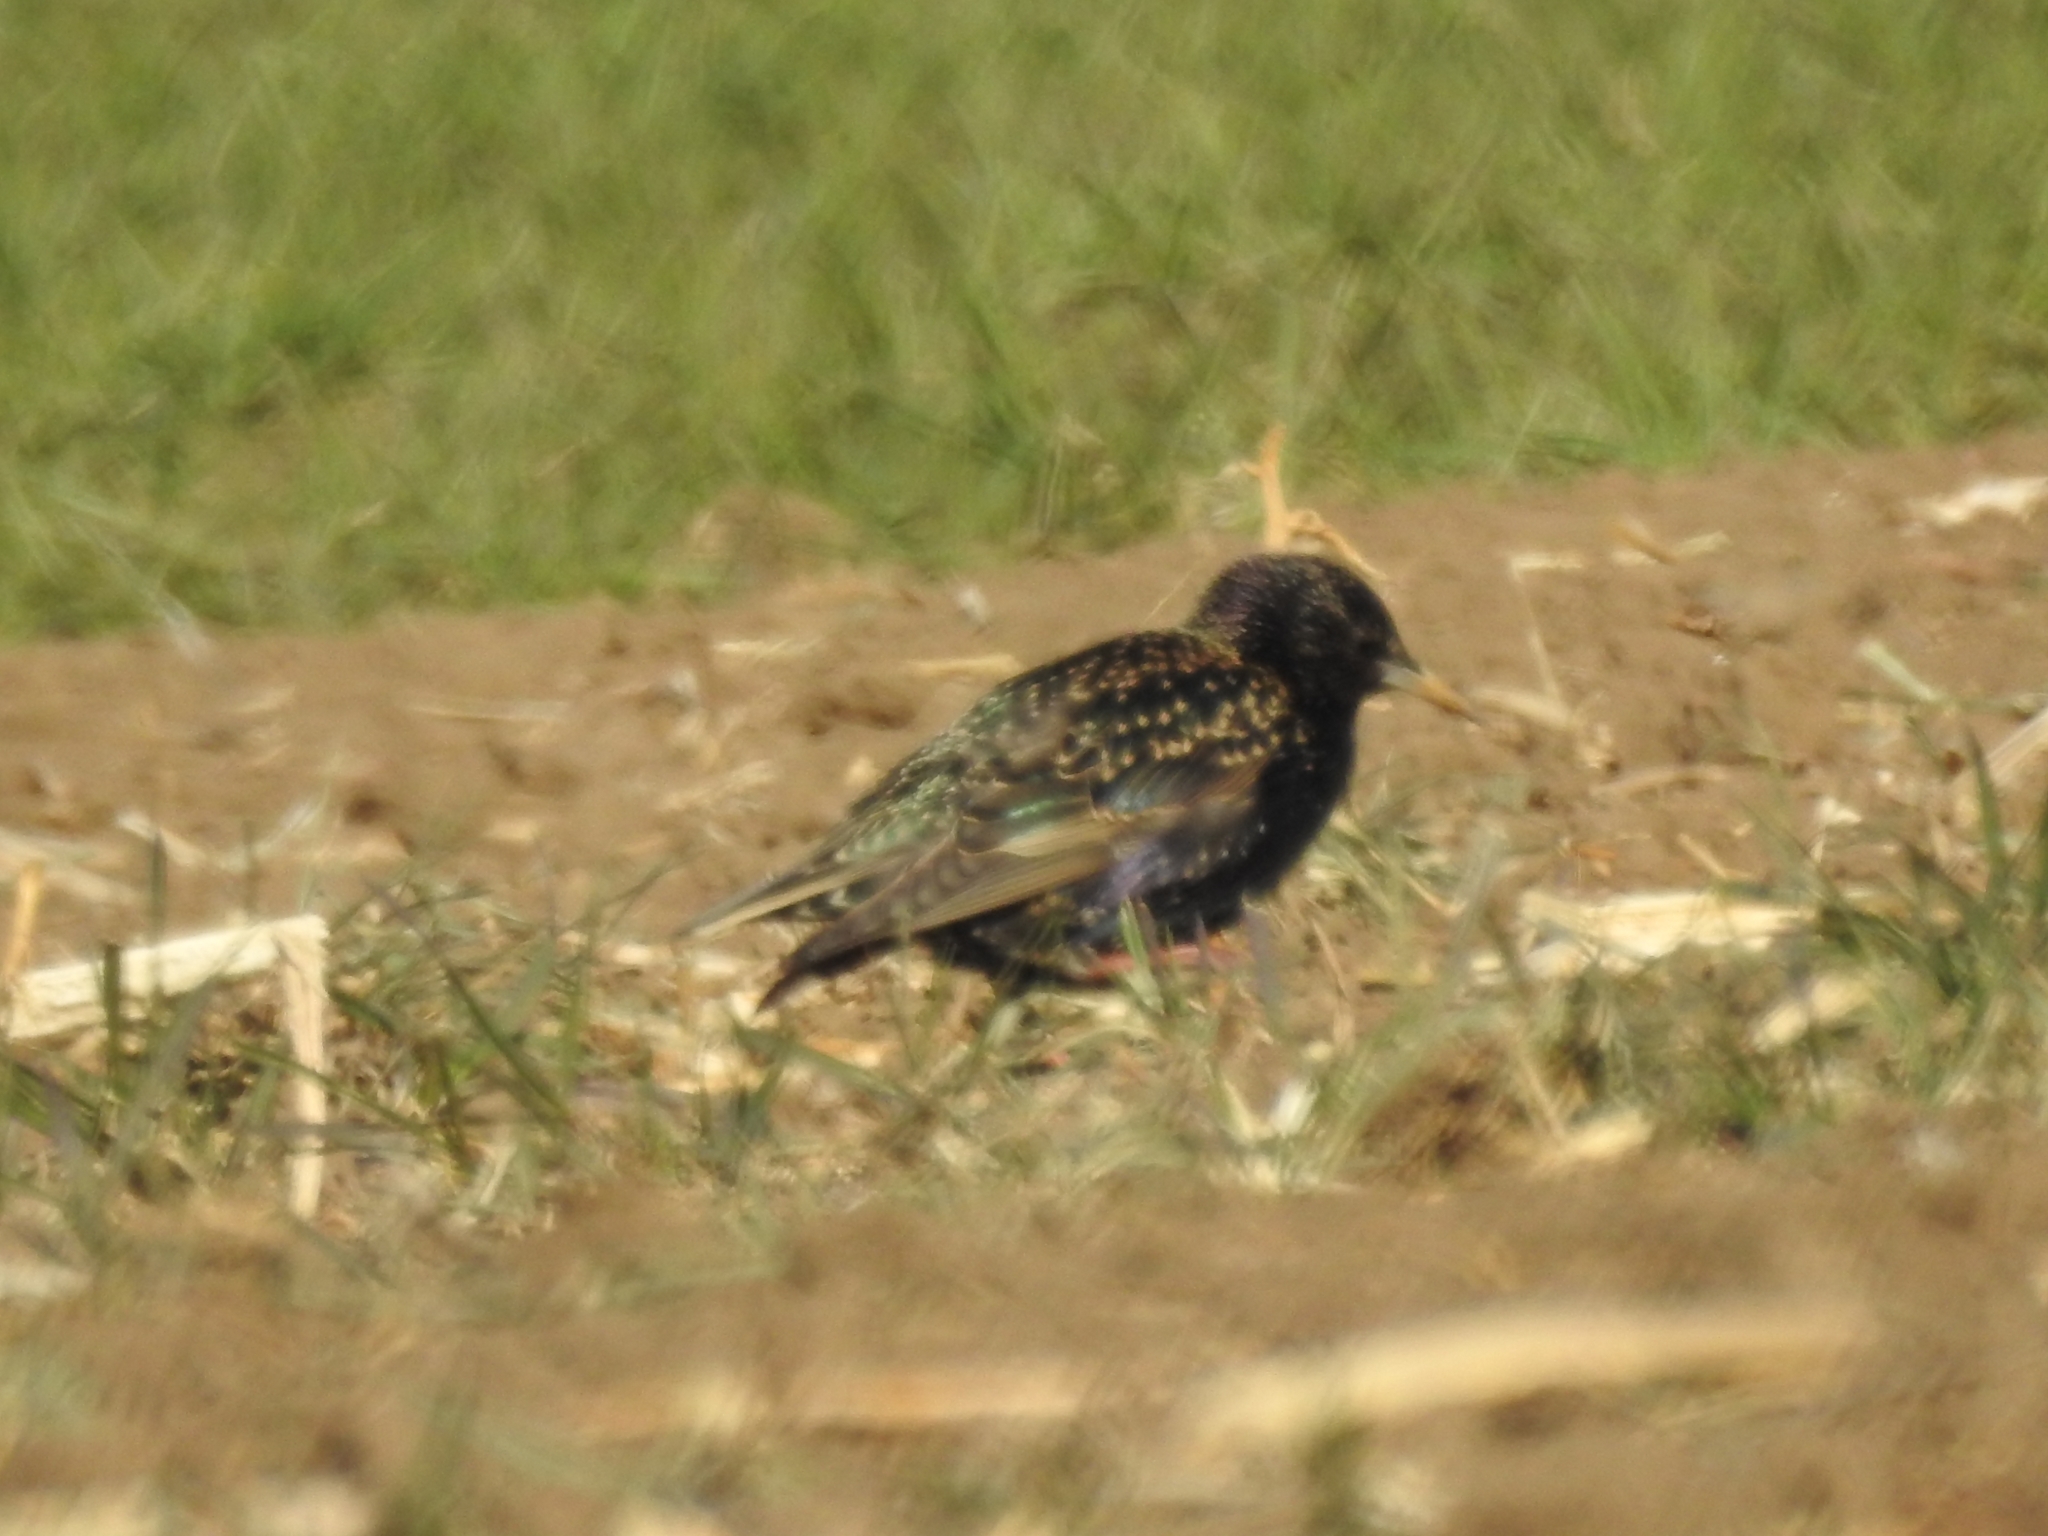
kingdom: Animalia
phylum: Chordata
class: Aves
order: Passeriformes
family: Sturnidae
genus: Sturnus
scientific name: Sturnus vulgaris
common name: Common starling
